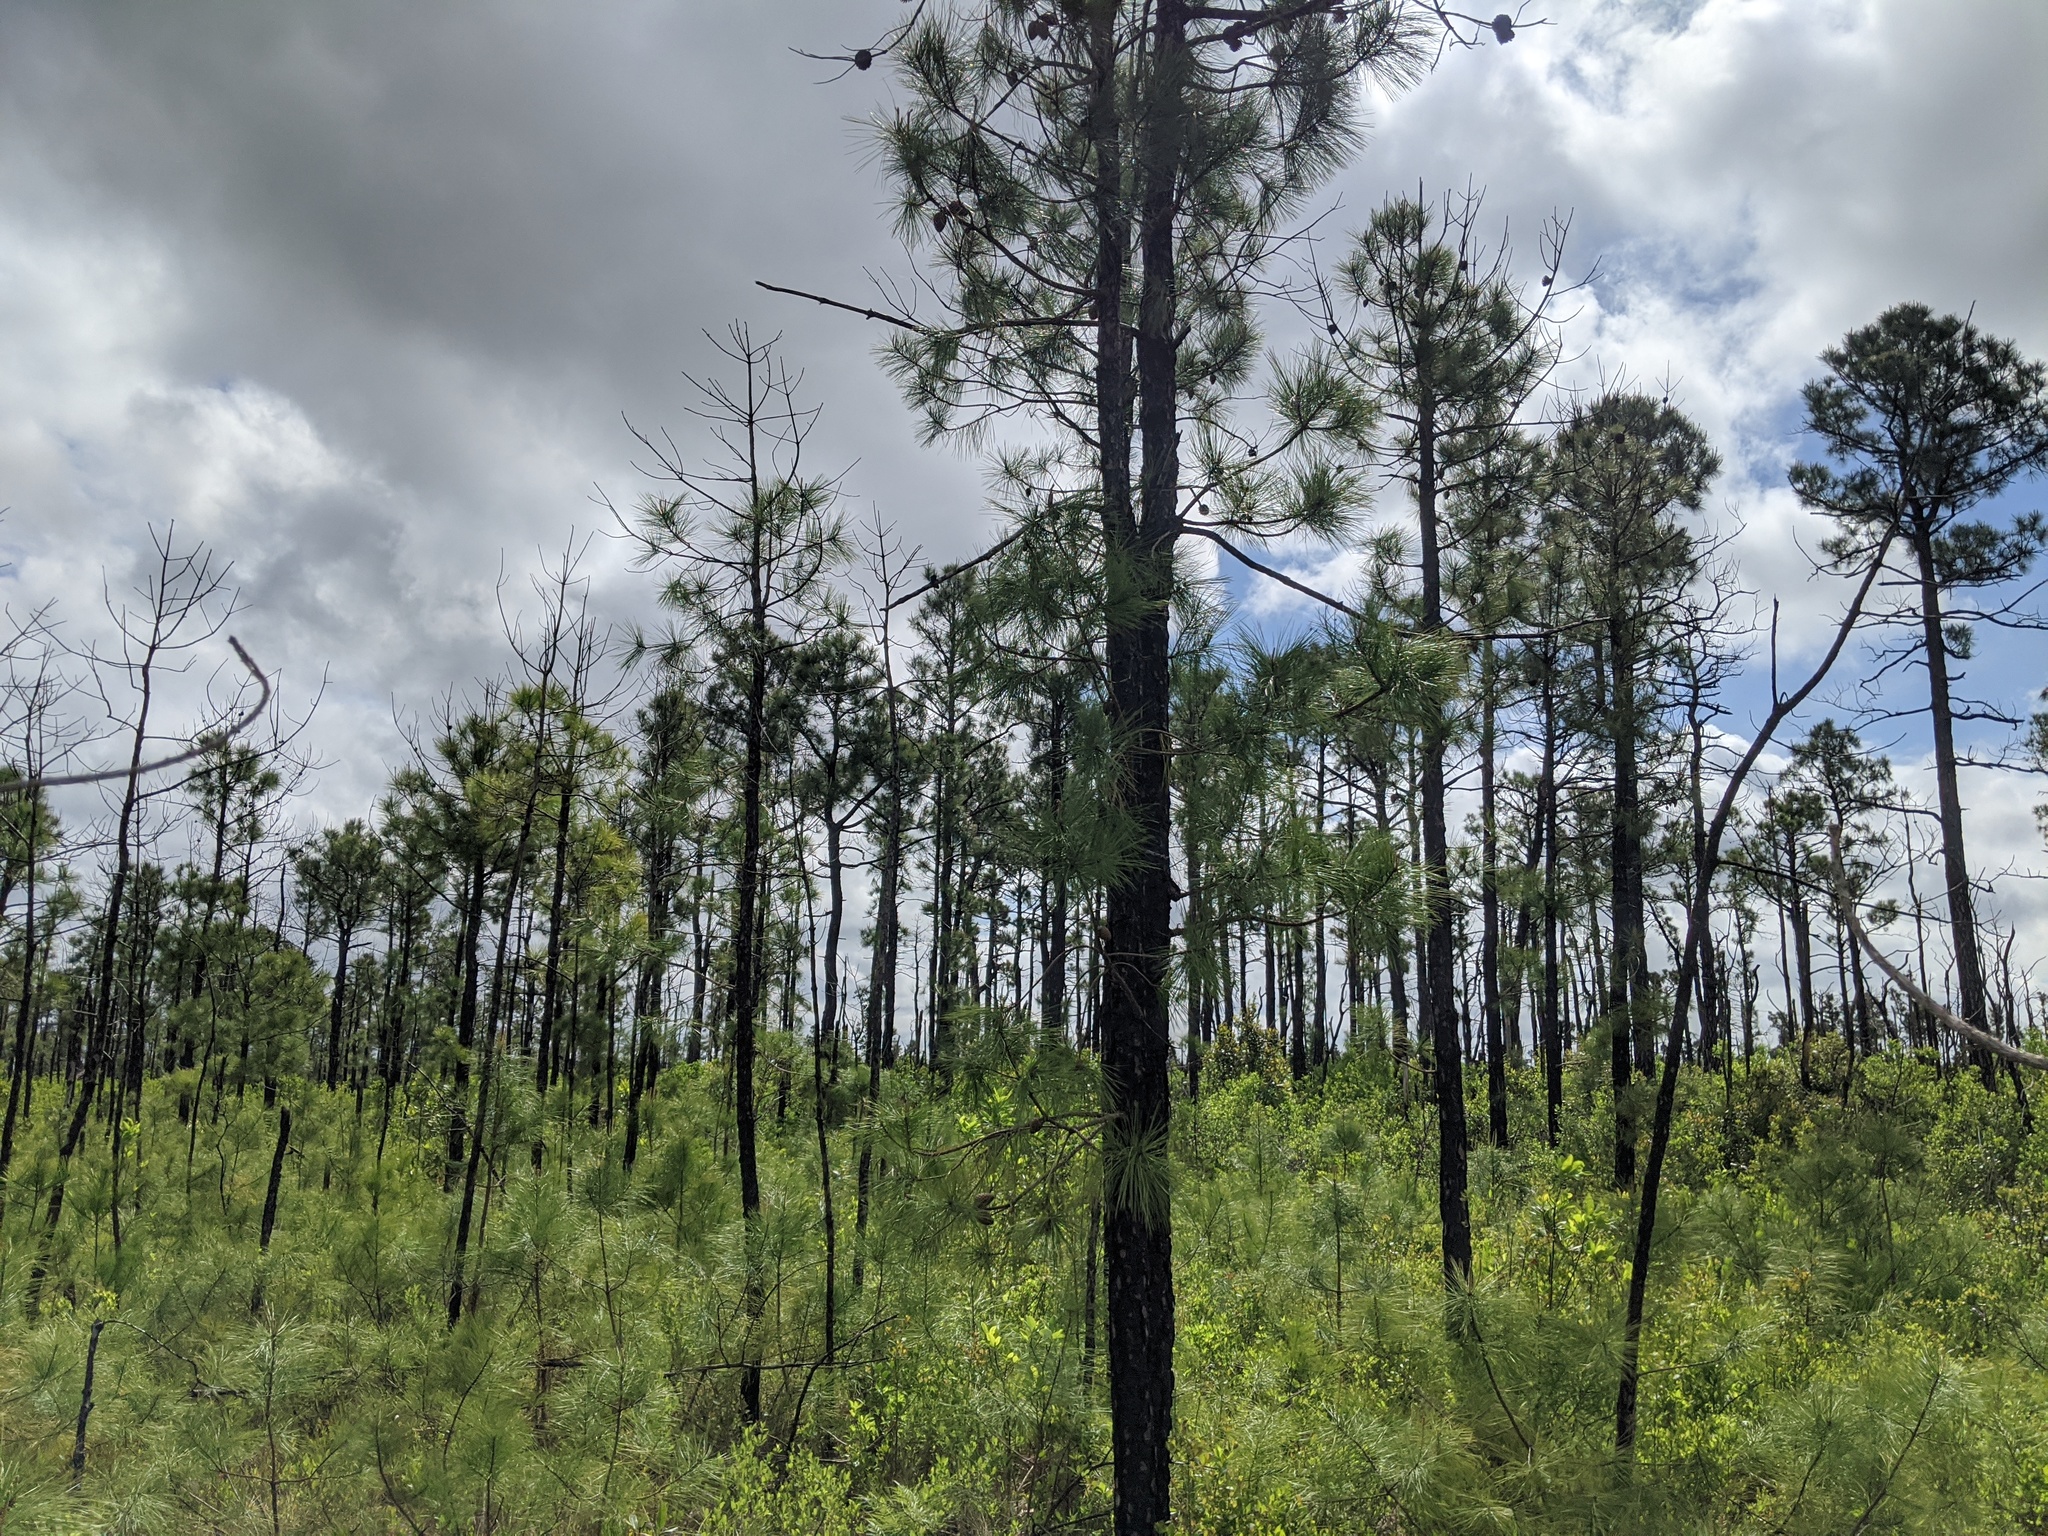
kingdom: Plantae
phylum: Tracheophyta
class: Pinopsida
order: Pinales
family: Pinaceae
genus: Pinus
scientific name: Pinus serotina
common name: Marsh pine
